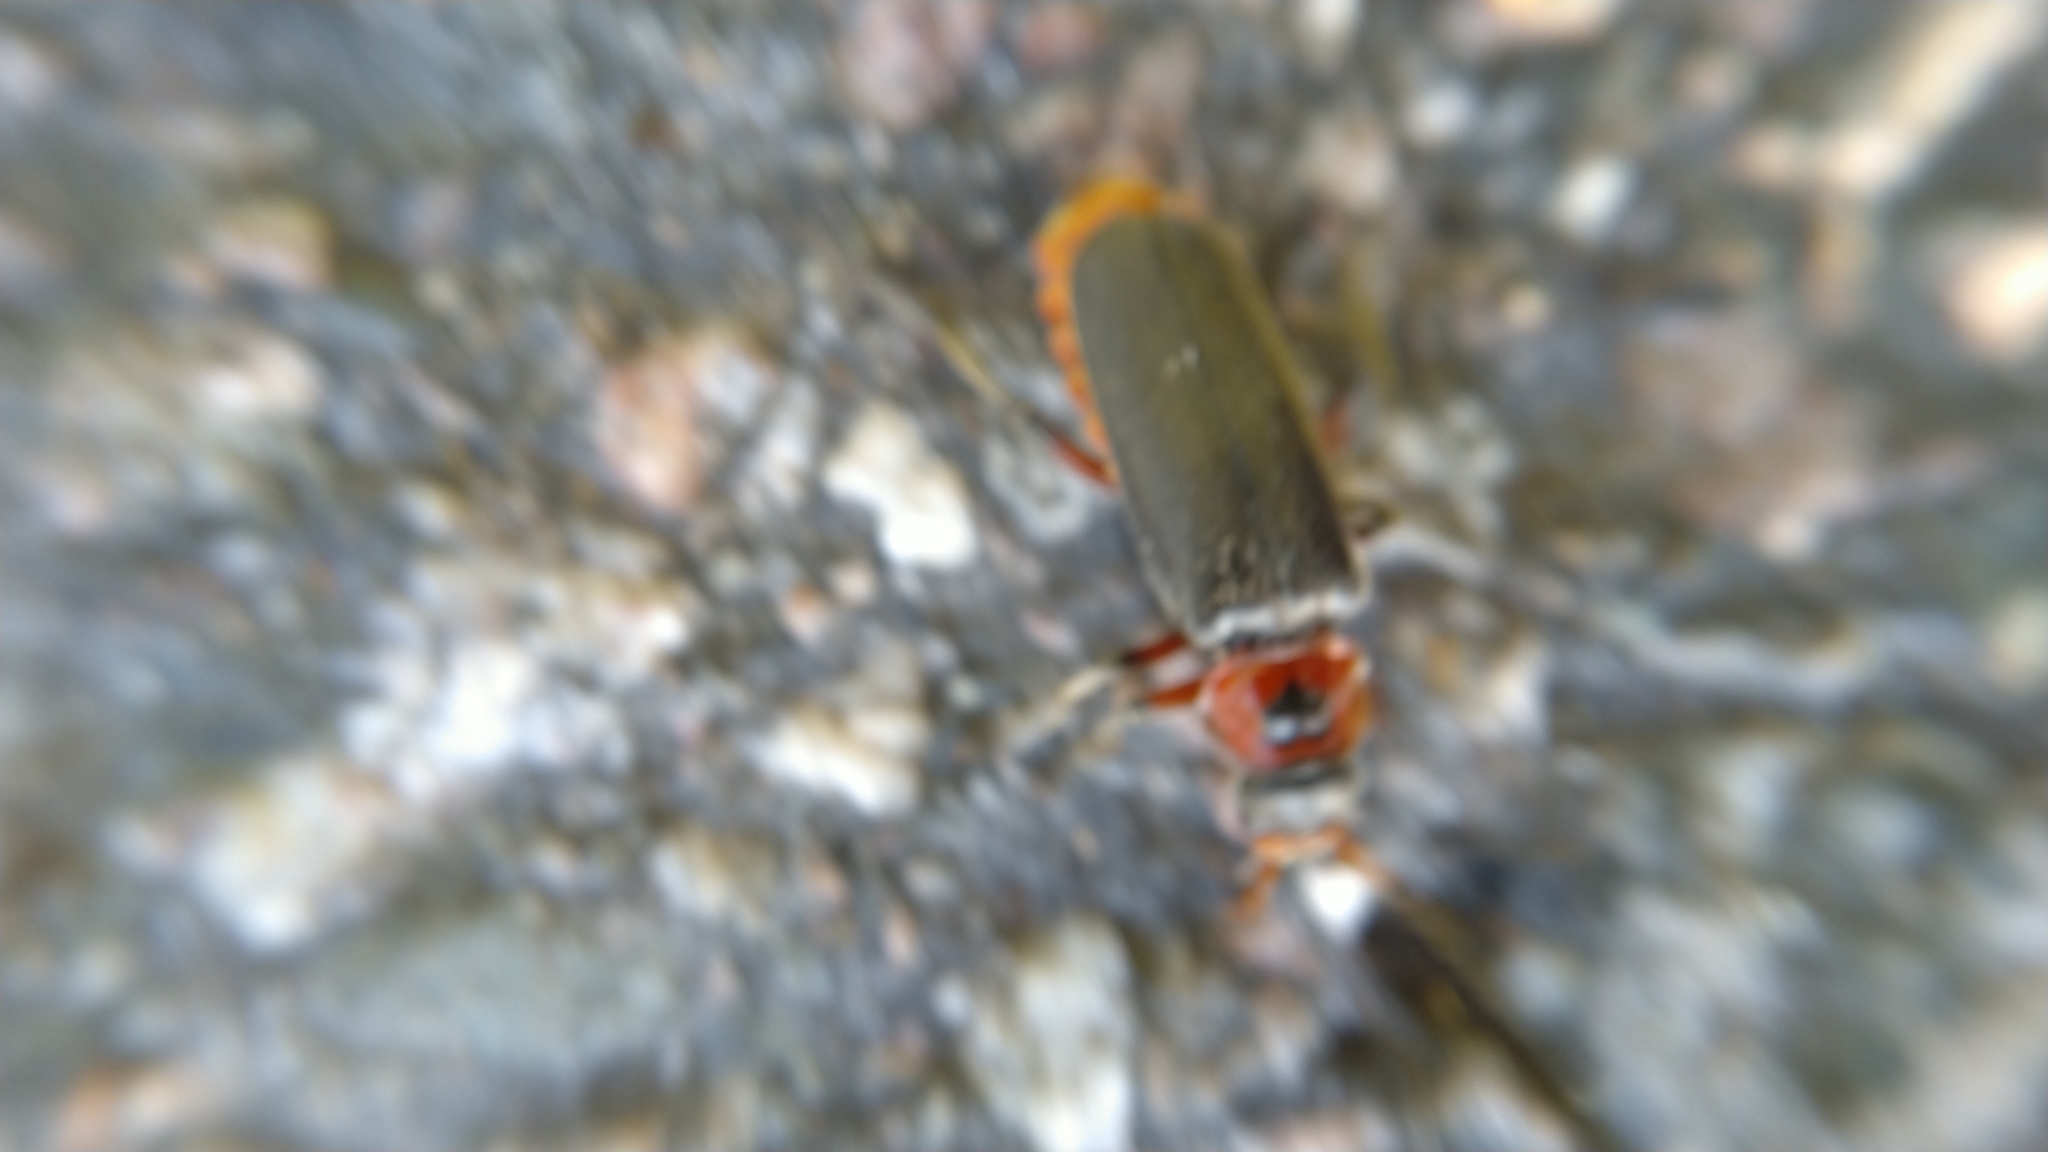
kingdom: Animalia
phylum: Arthropoda
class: Insecta
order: Coleoptera
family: Cantharidae
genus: Cantharis
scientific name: Cantharis rustica
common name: Soldier beetle
